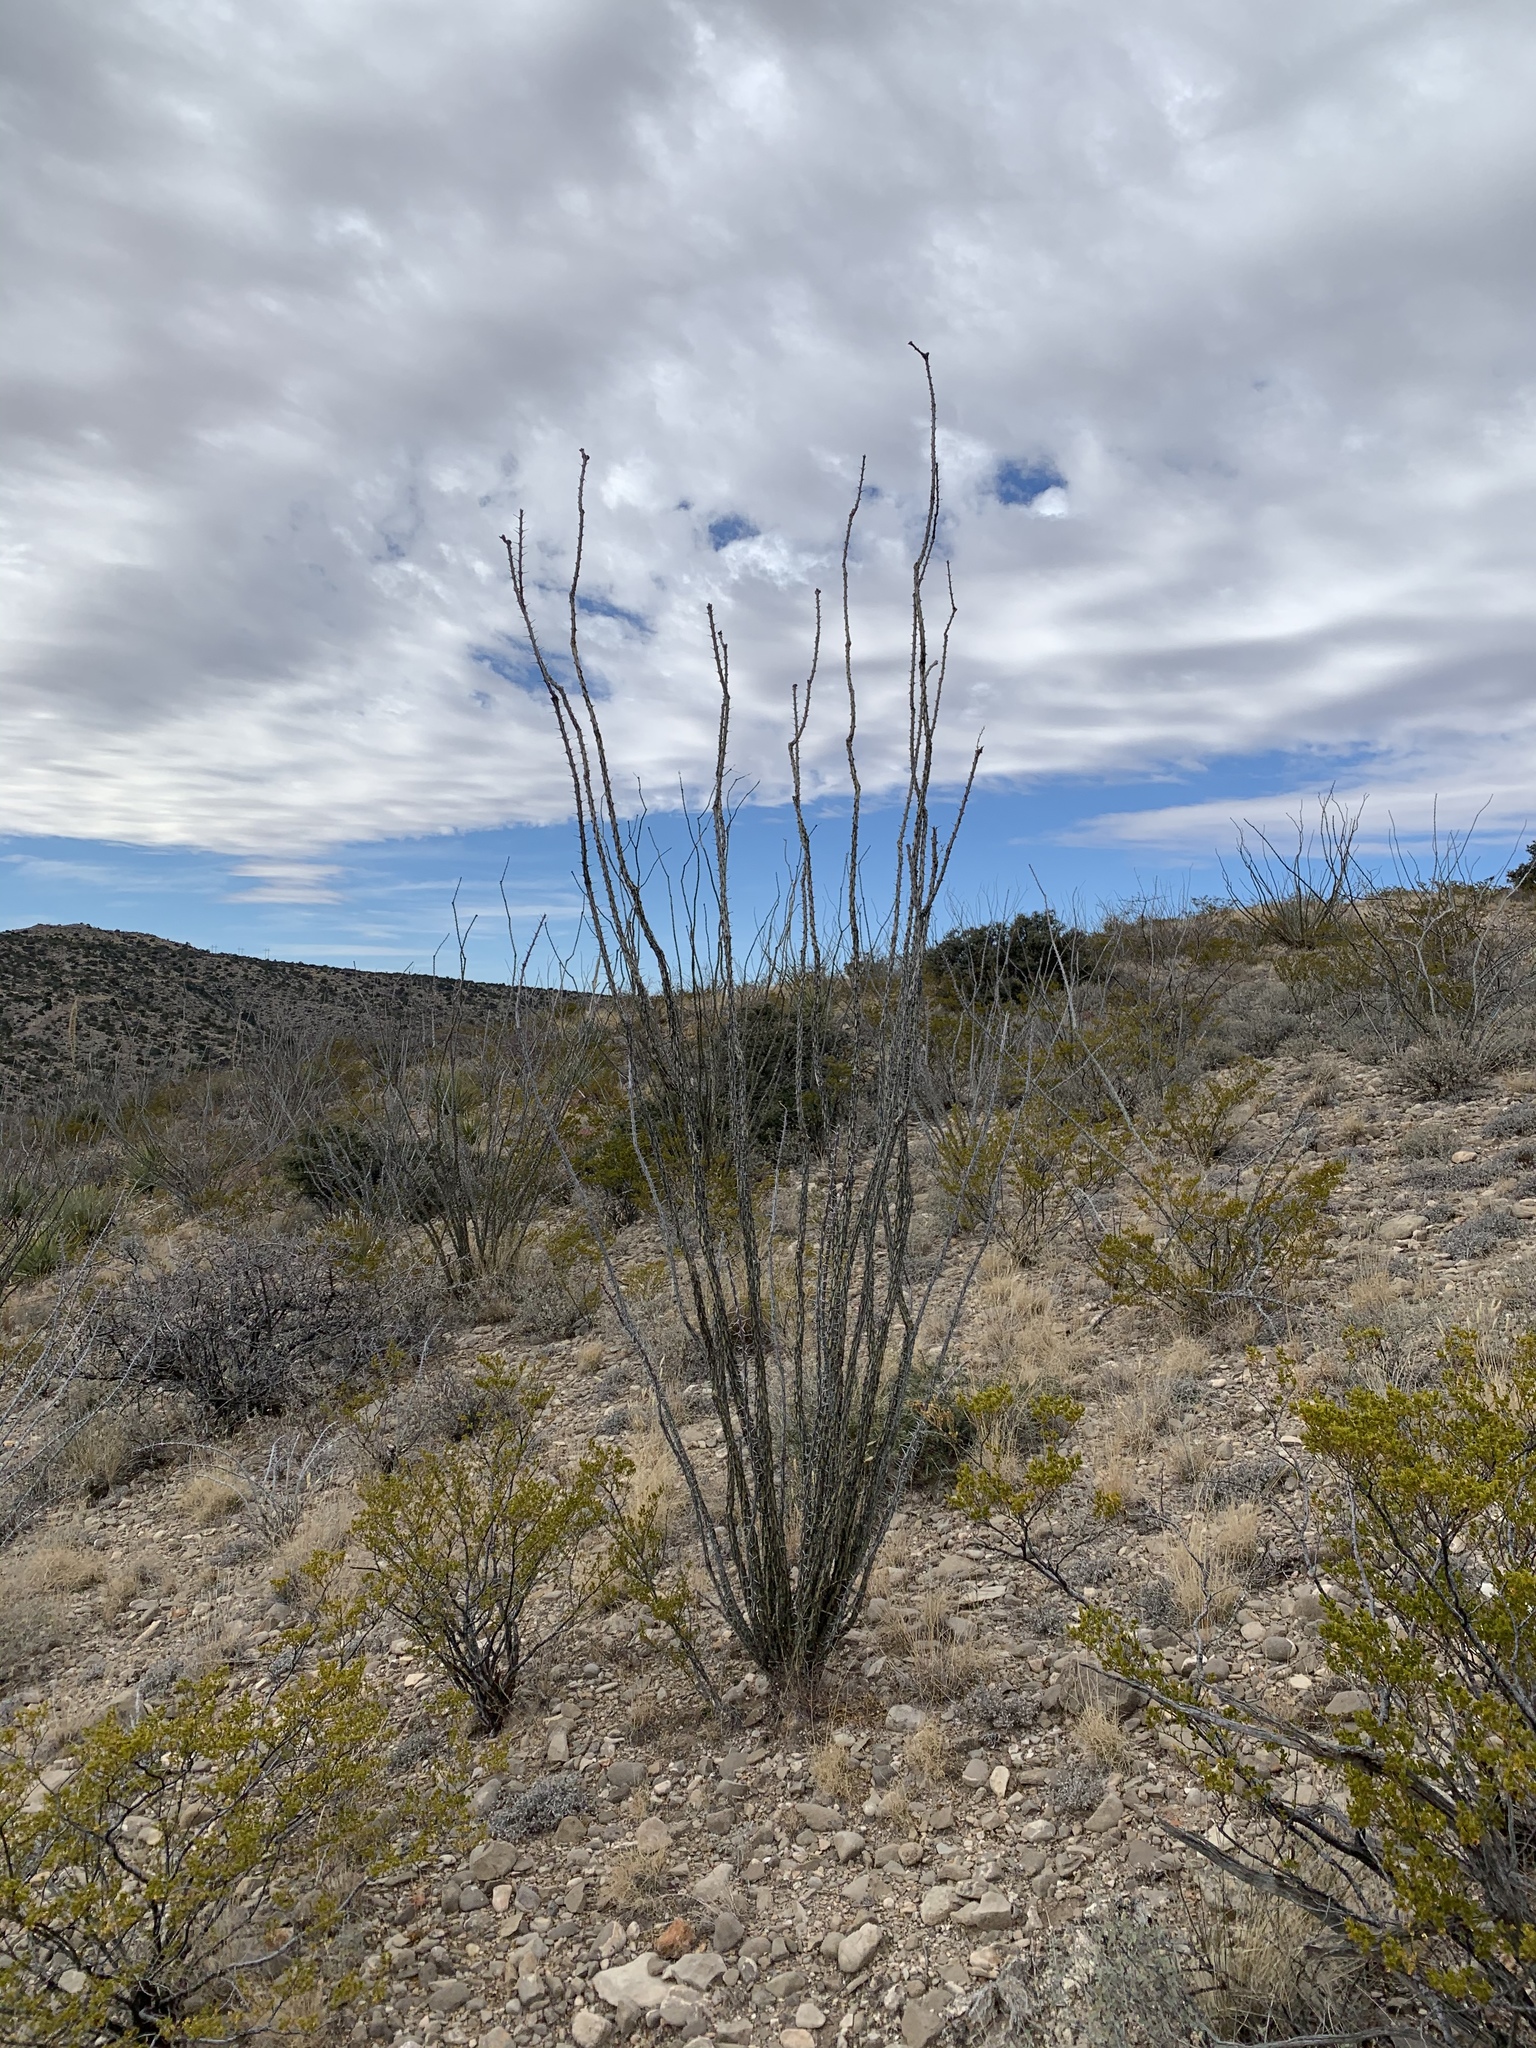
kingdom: Plantae
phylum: Tracheophyta
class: Magnoliopsida
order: Ericales
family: Fouquieriaceae
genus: Fouquieria
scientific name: Fouquieria splendens
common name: Vine-cactus
